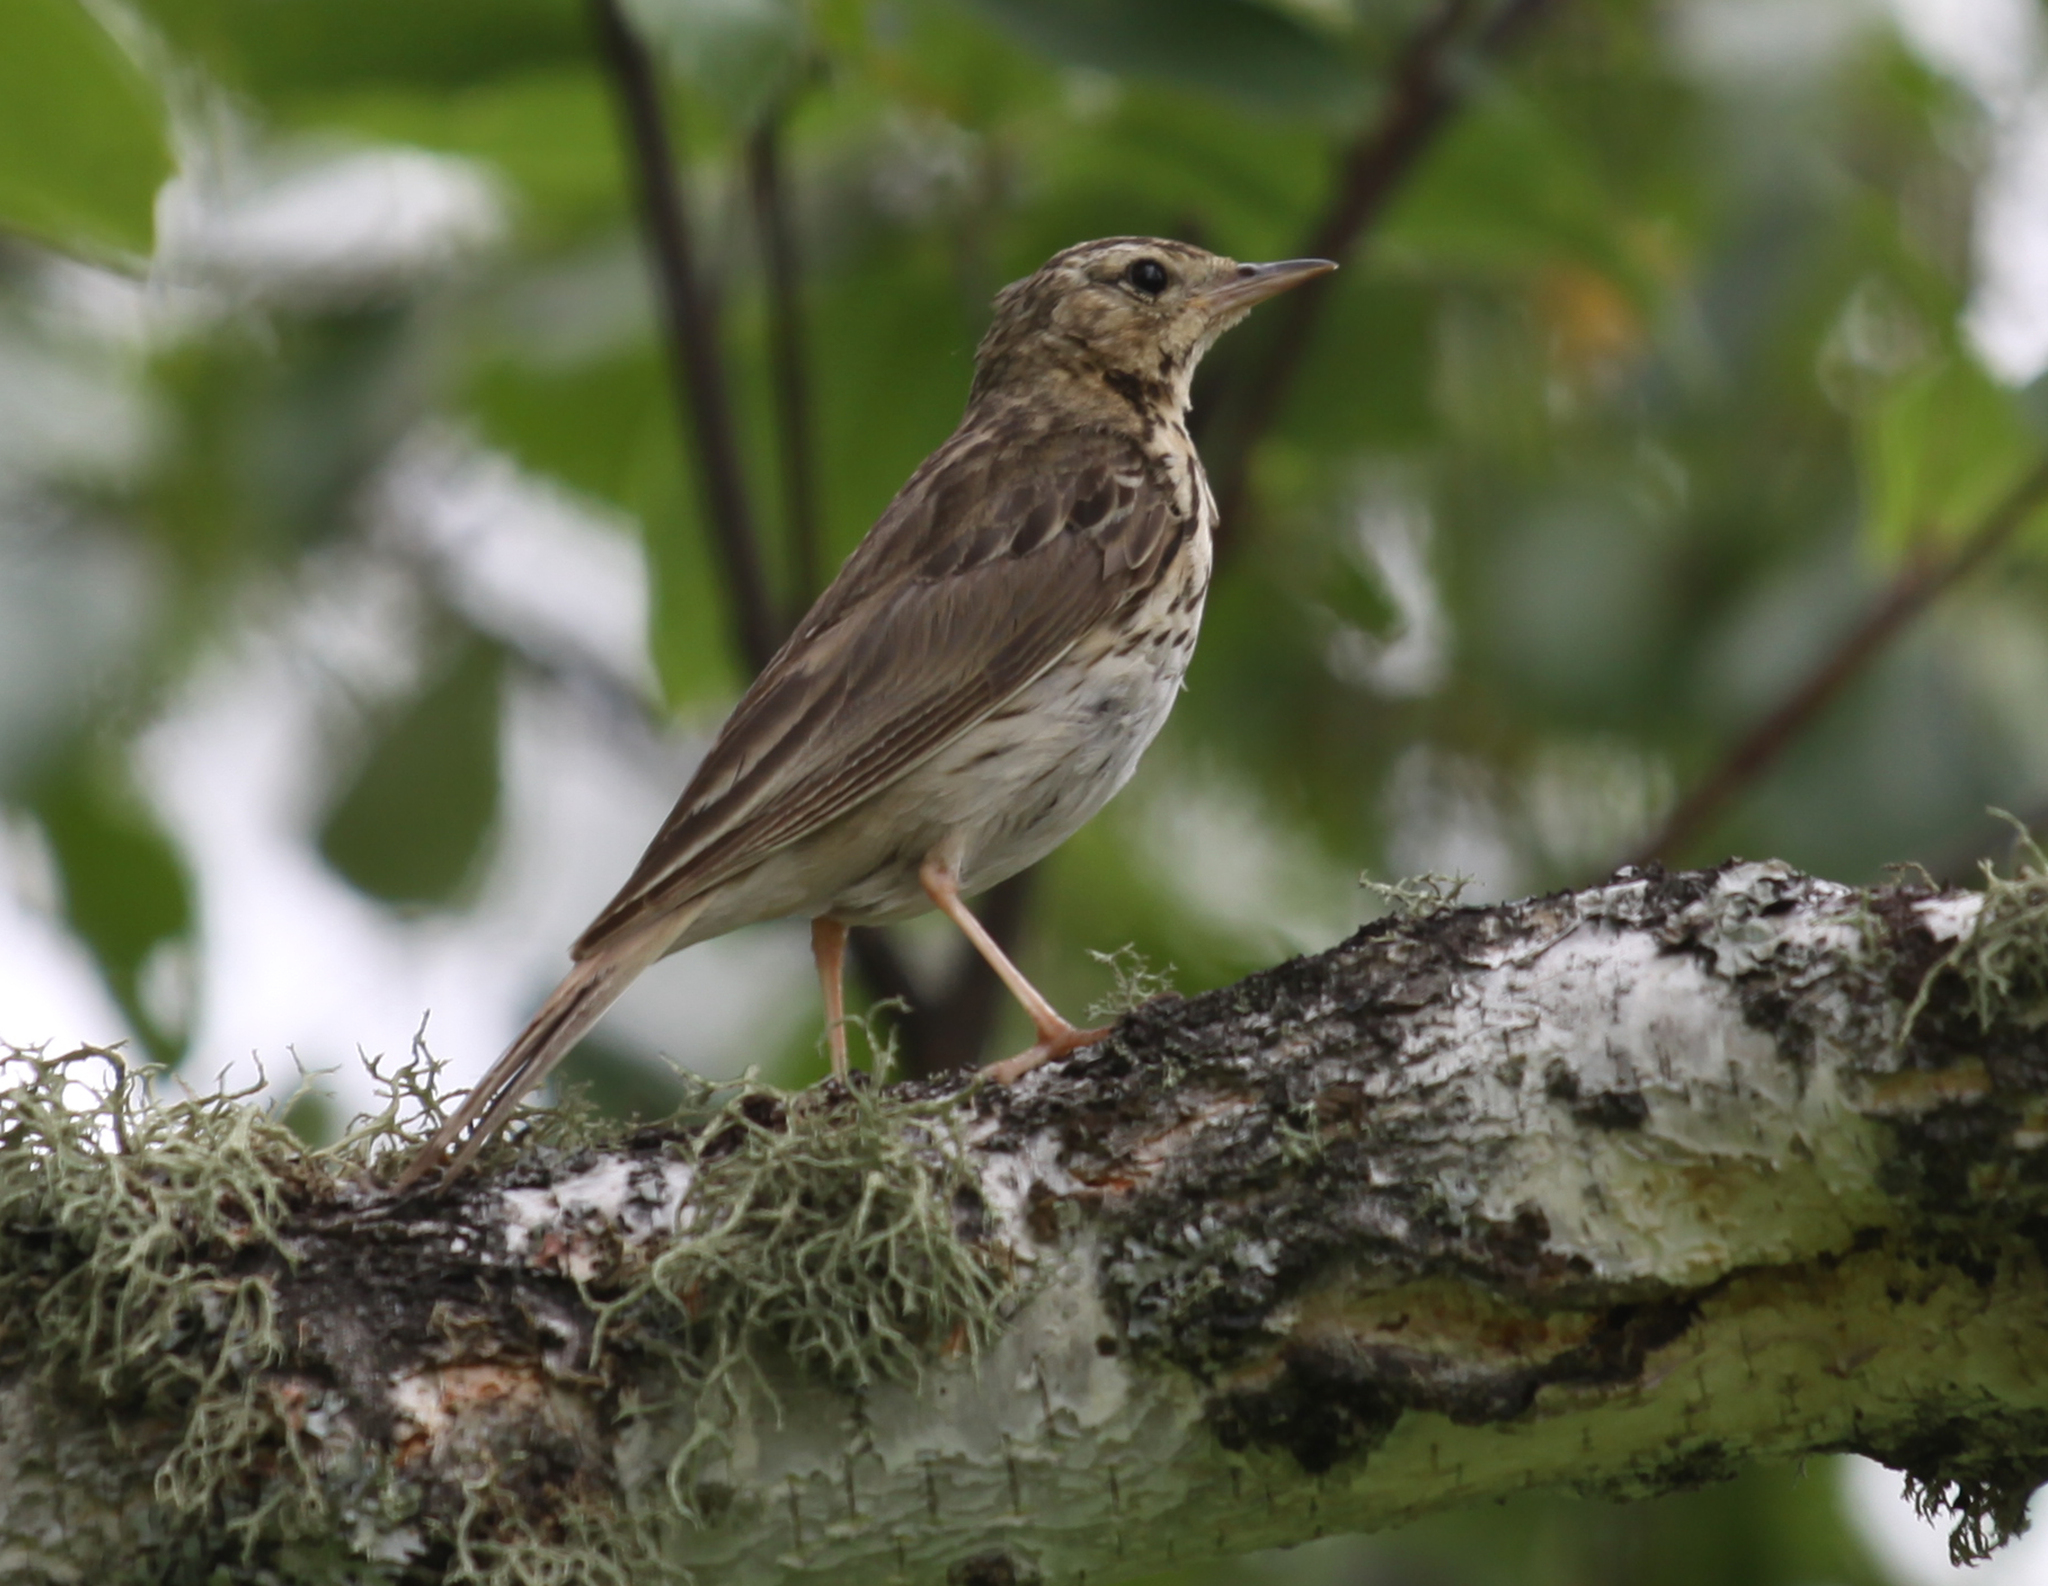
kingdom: Animalia
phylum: Chordata
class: Aves
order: Passeriformes
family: Motacillidae
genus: Anthus
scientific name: Anthus trivialis
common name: Tree pipit
